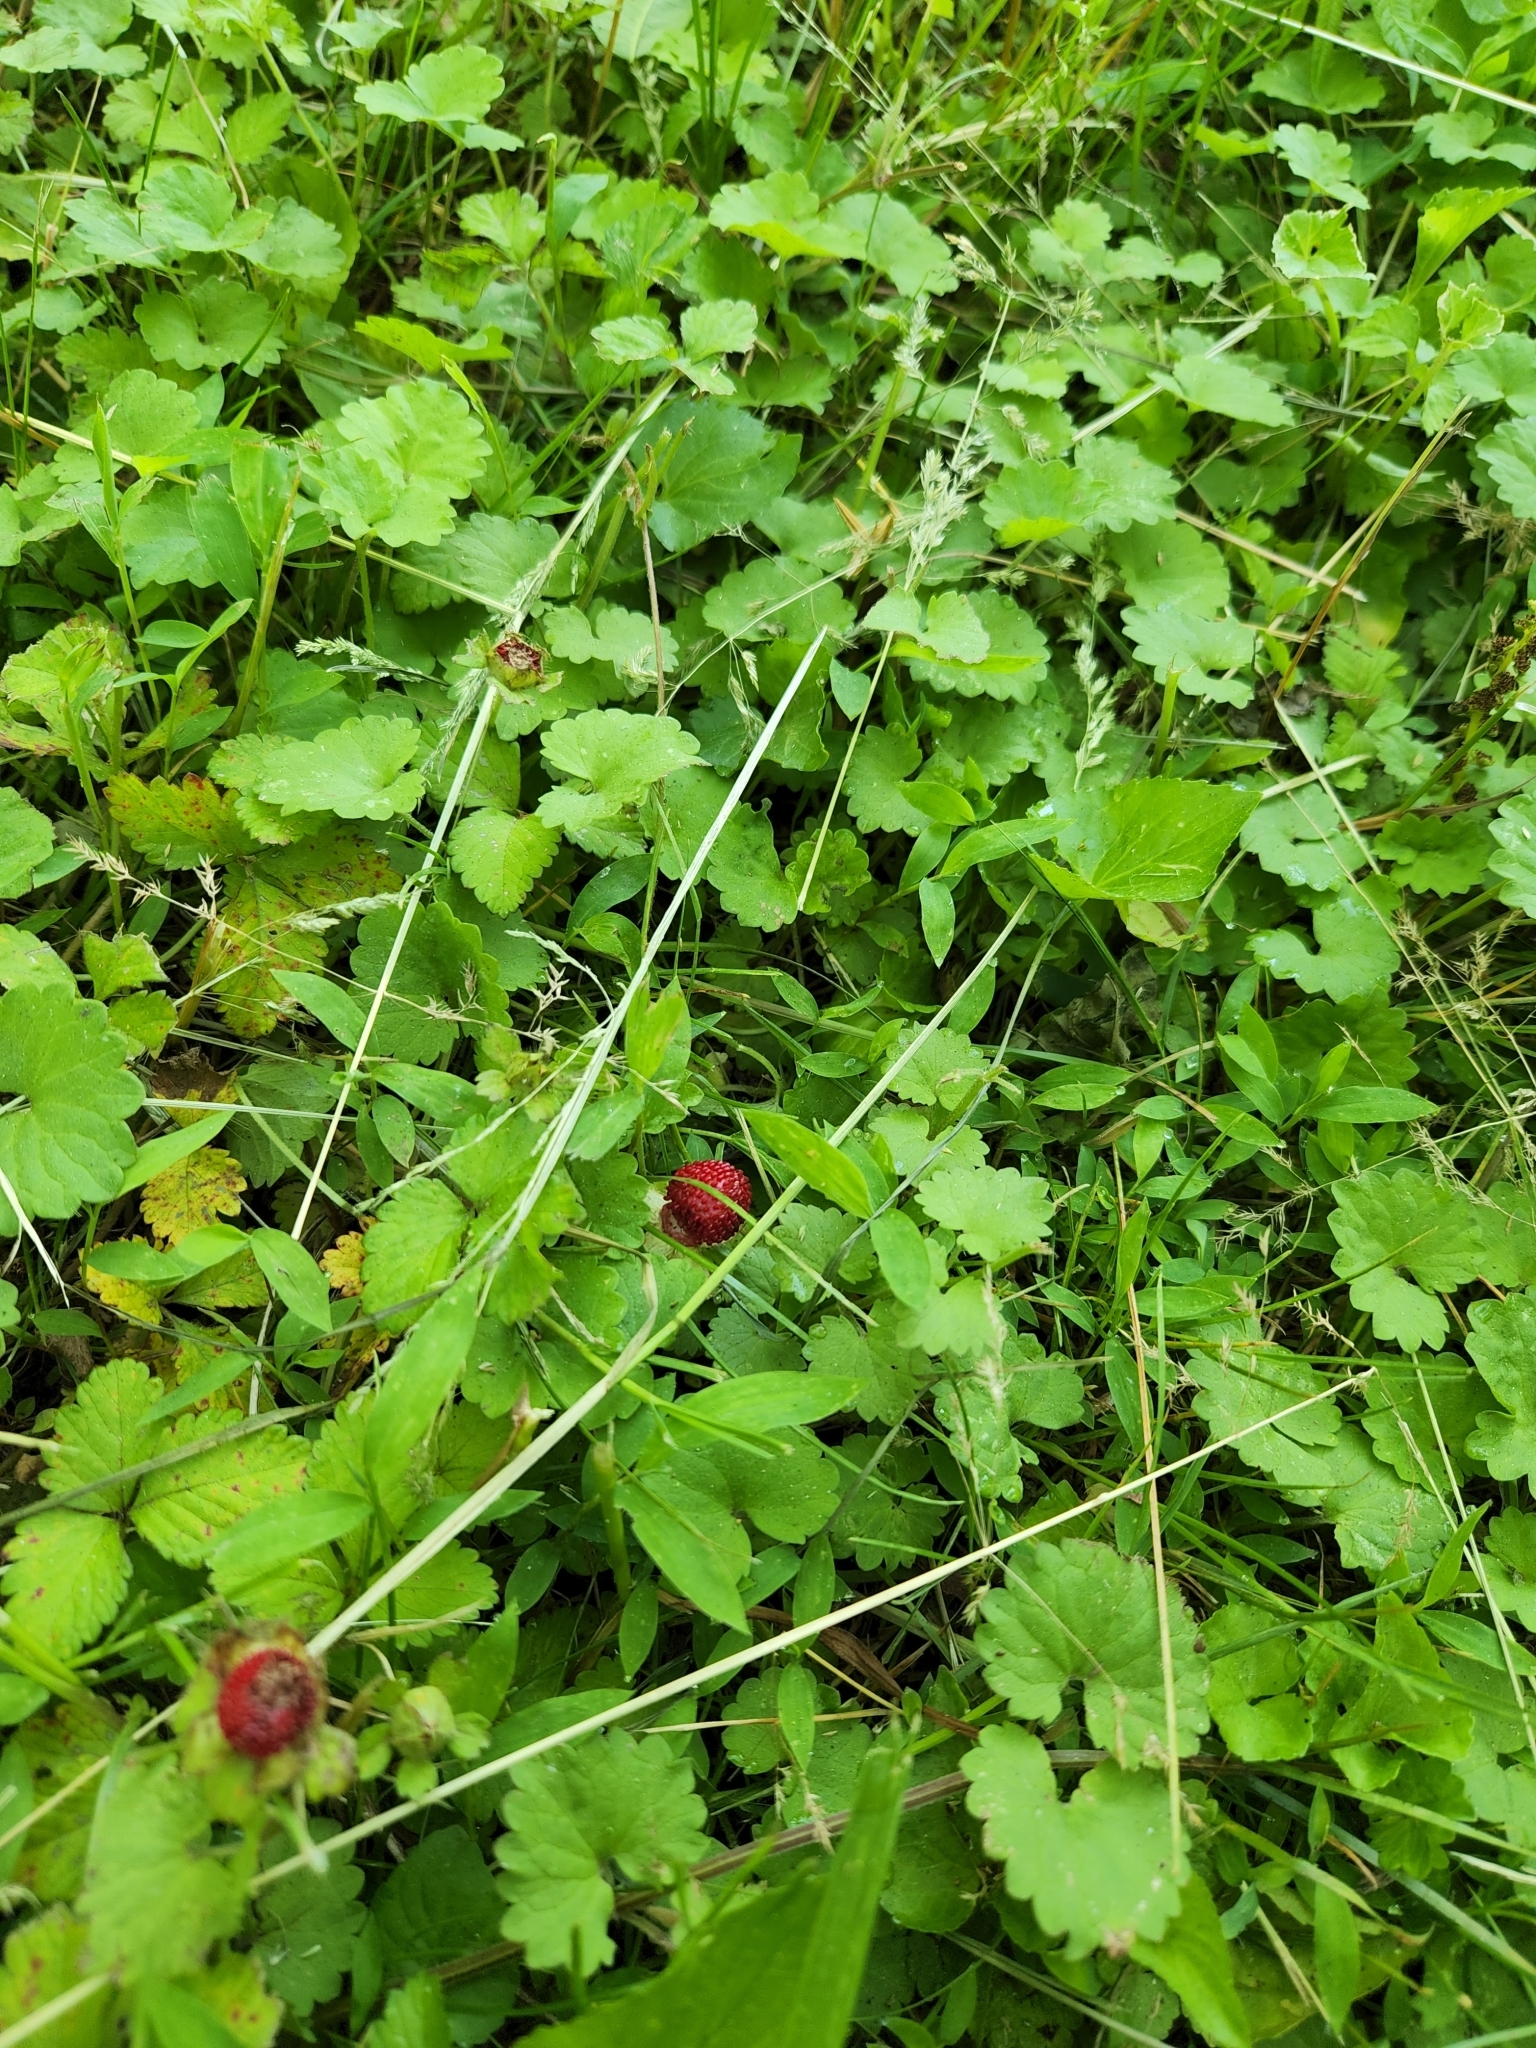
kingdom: Plantae
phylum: Tracheophyta
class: Magnoliopsida
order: Rosales
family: Rosaceae
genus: Potentilla
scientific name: Potentilla indica
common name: Yellow-flowered strawberry
